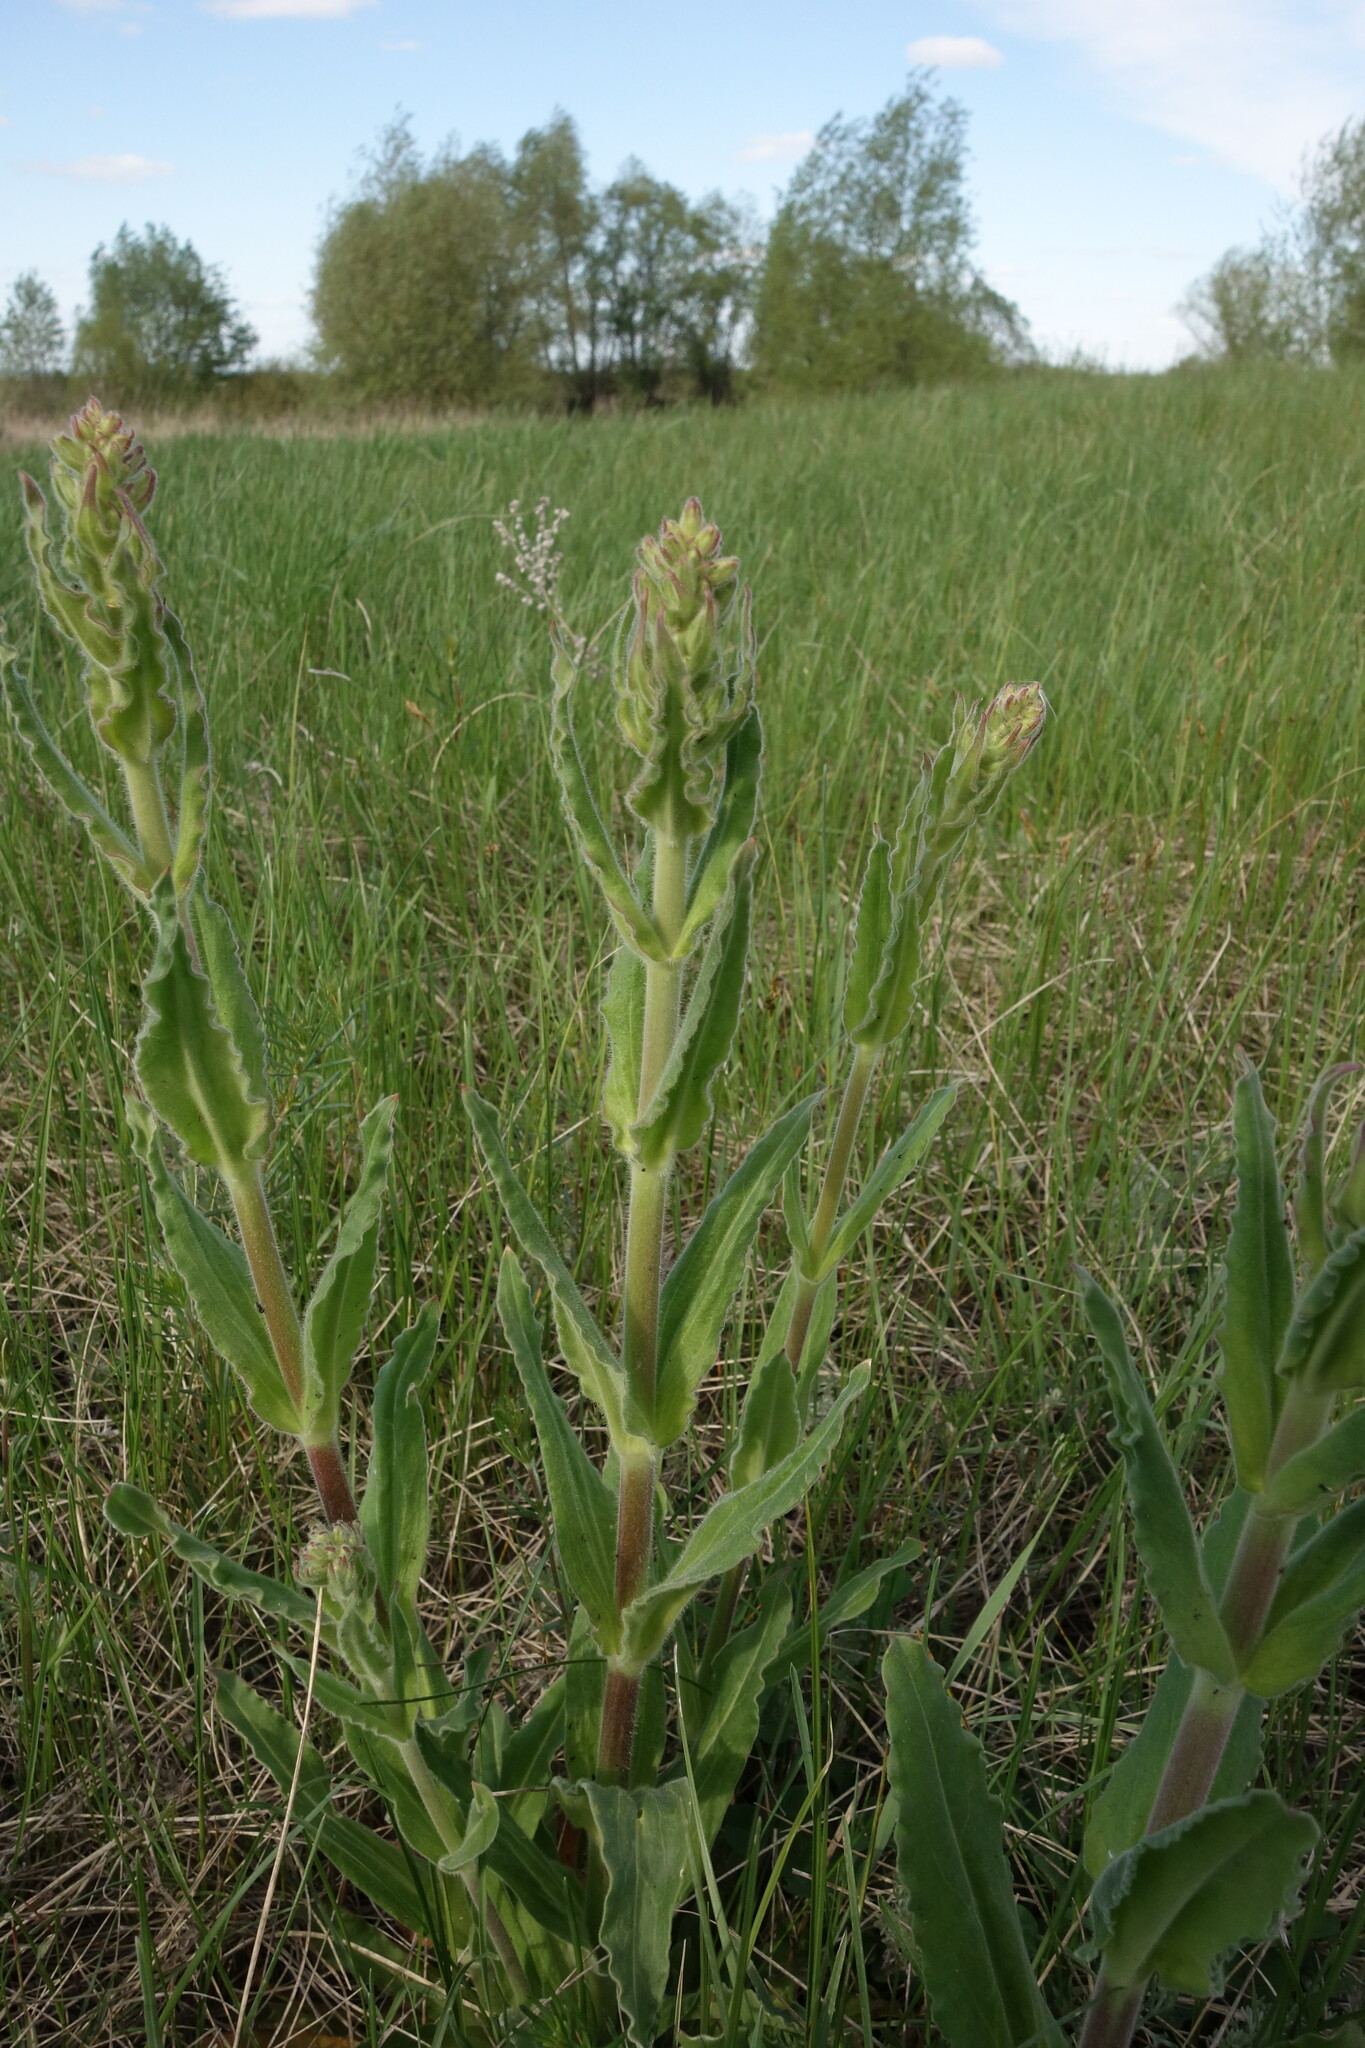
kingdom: Plantae
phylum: Tracheophyta
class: Magnoliopsida
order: Caryophyllales
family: Caryophyllaceae
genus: Silene
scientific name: Silene viscosa
